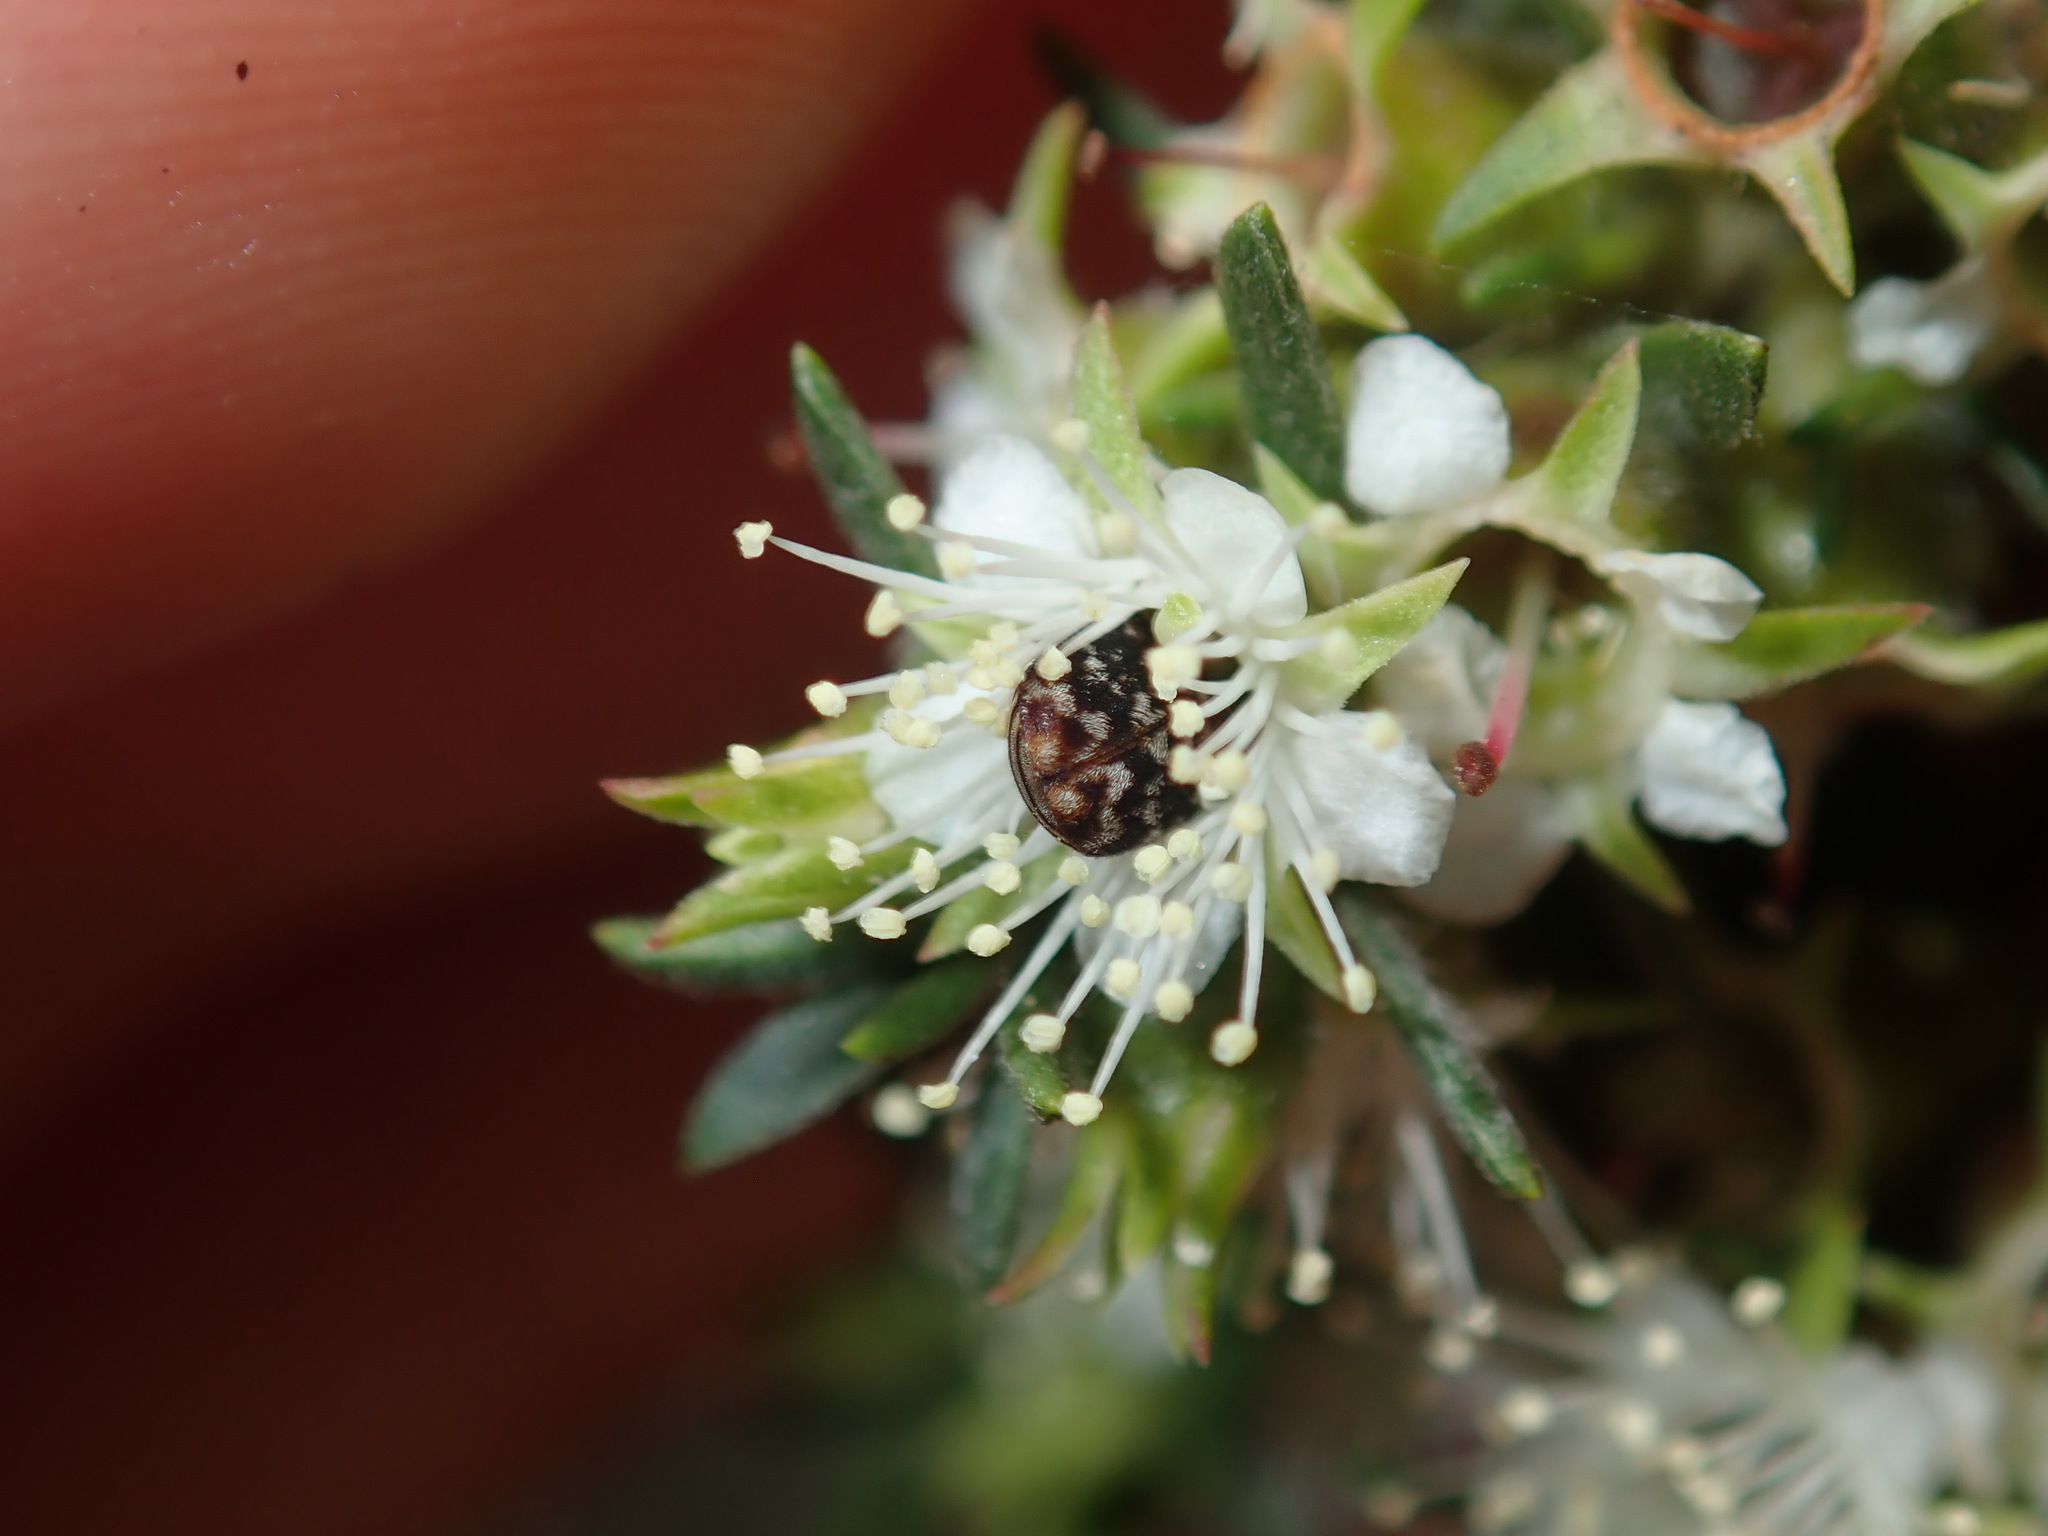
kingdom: Animalia
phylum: Arthropoda
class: Insecta
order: Coleoptera
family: Dermestidae
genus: Anthrenus
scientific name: Anthrenus verbasci
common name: Varied carpet beetle
